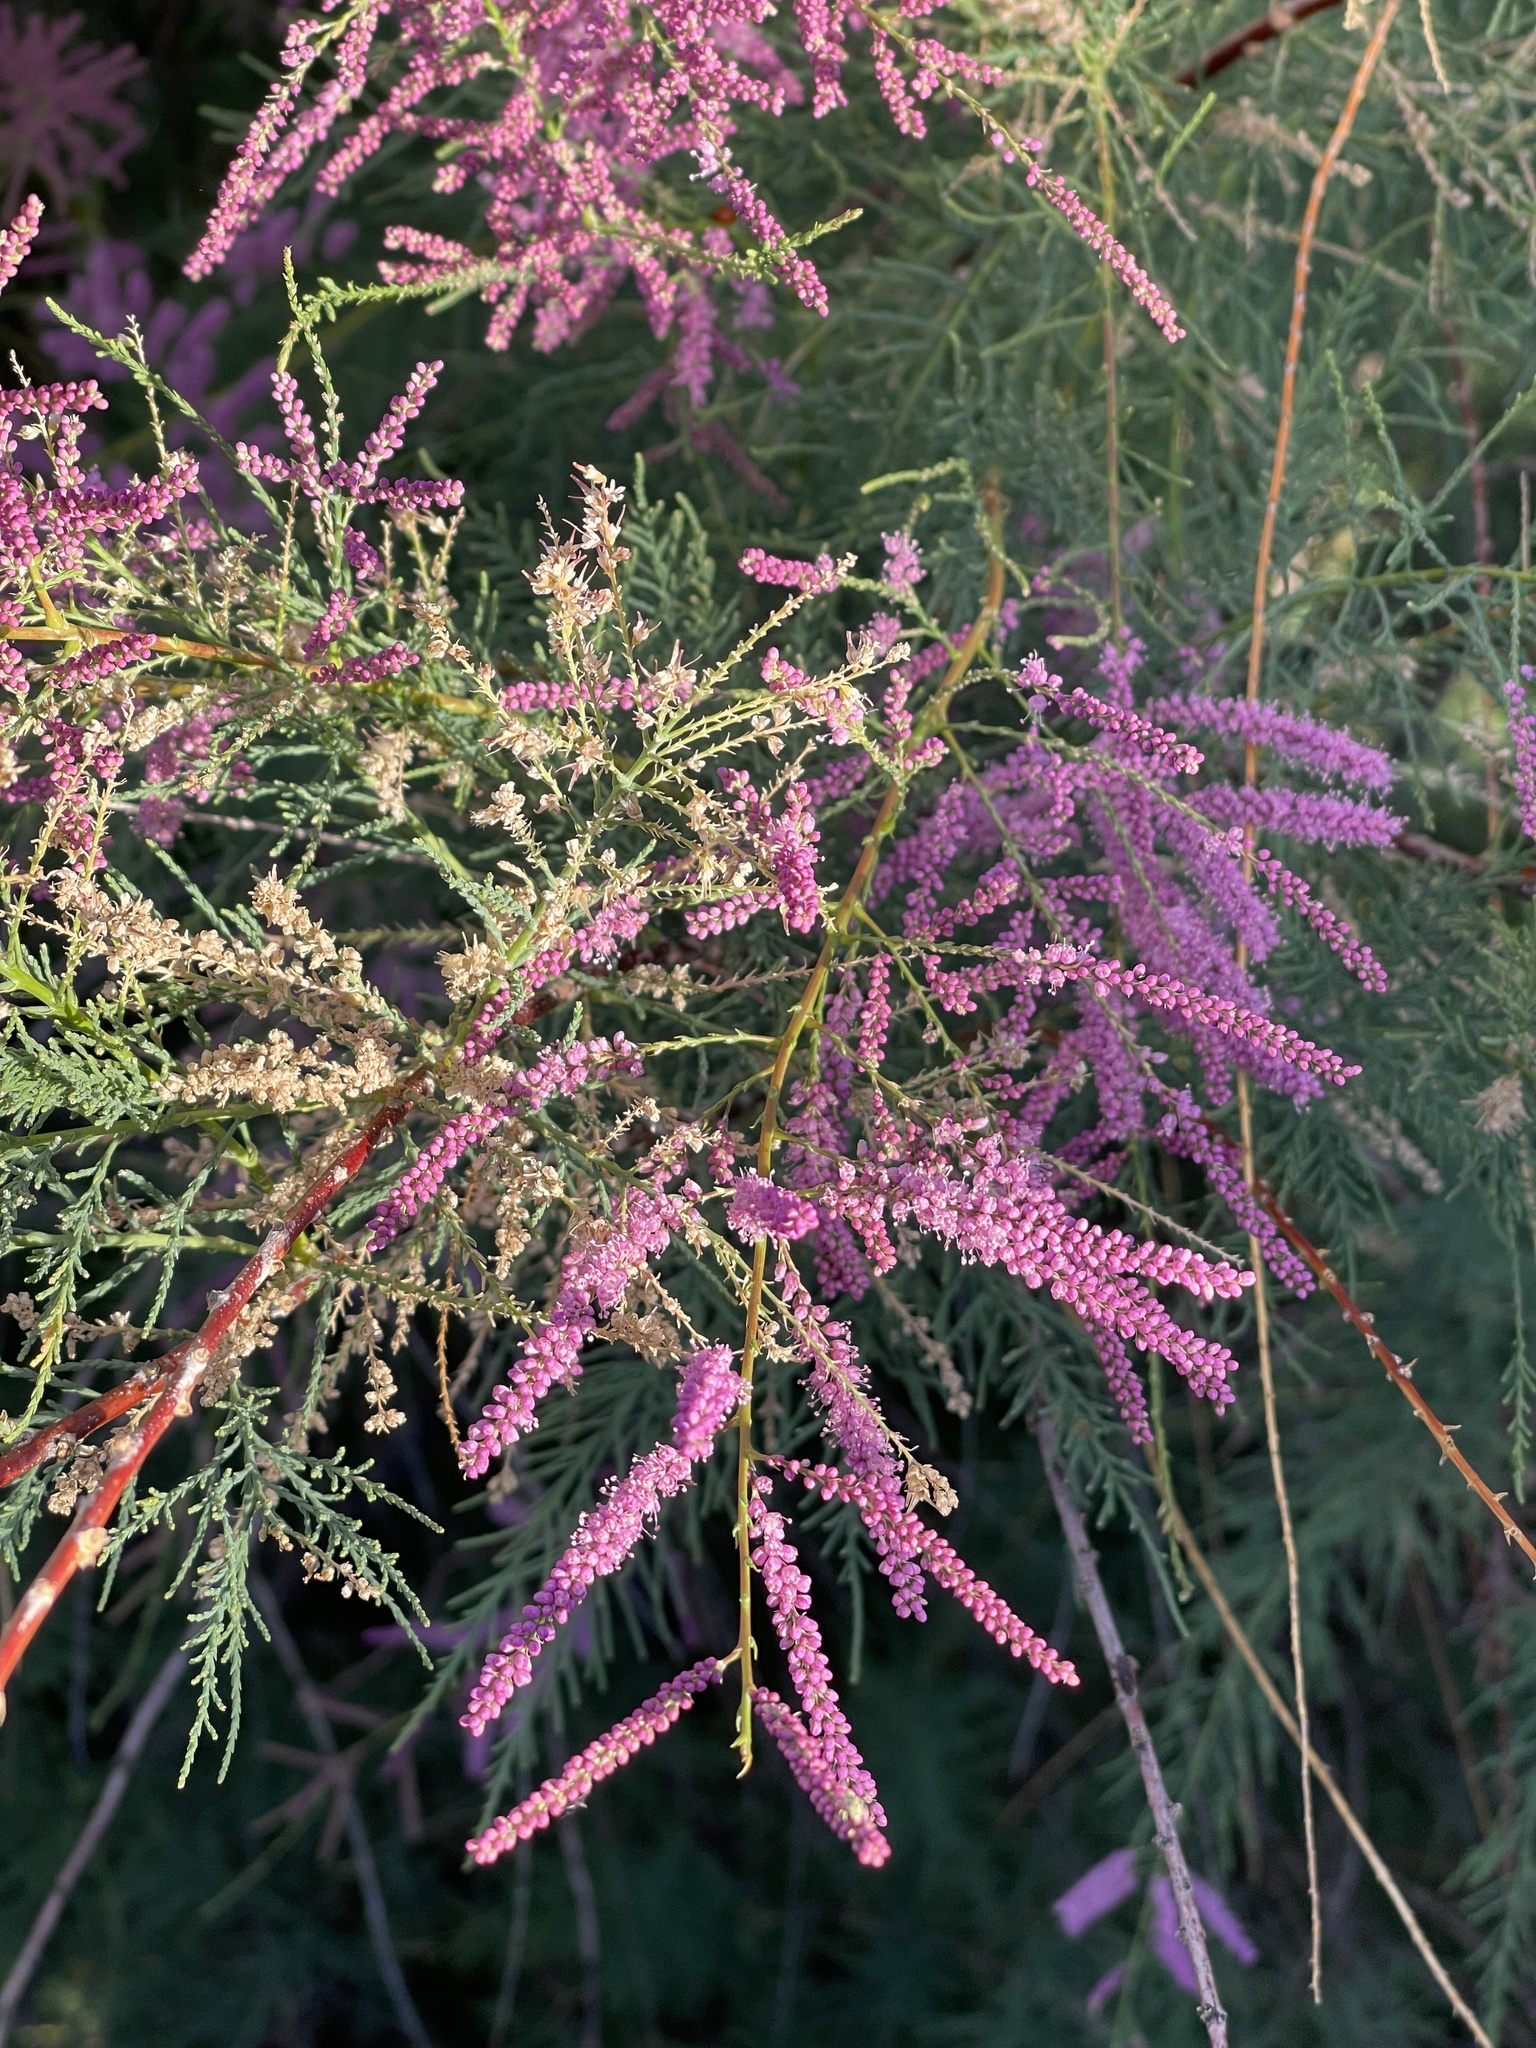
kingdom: Plantae
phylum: Tracheophyta
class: Magnoliopsida
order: Caryophyllales
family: Tamaricaceae
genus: Tamarix
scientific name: Tamarix chinensis
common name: Chinese tamarisk
